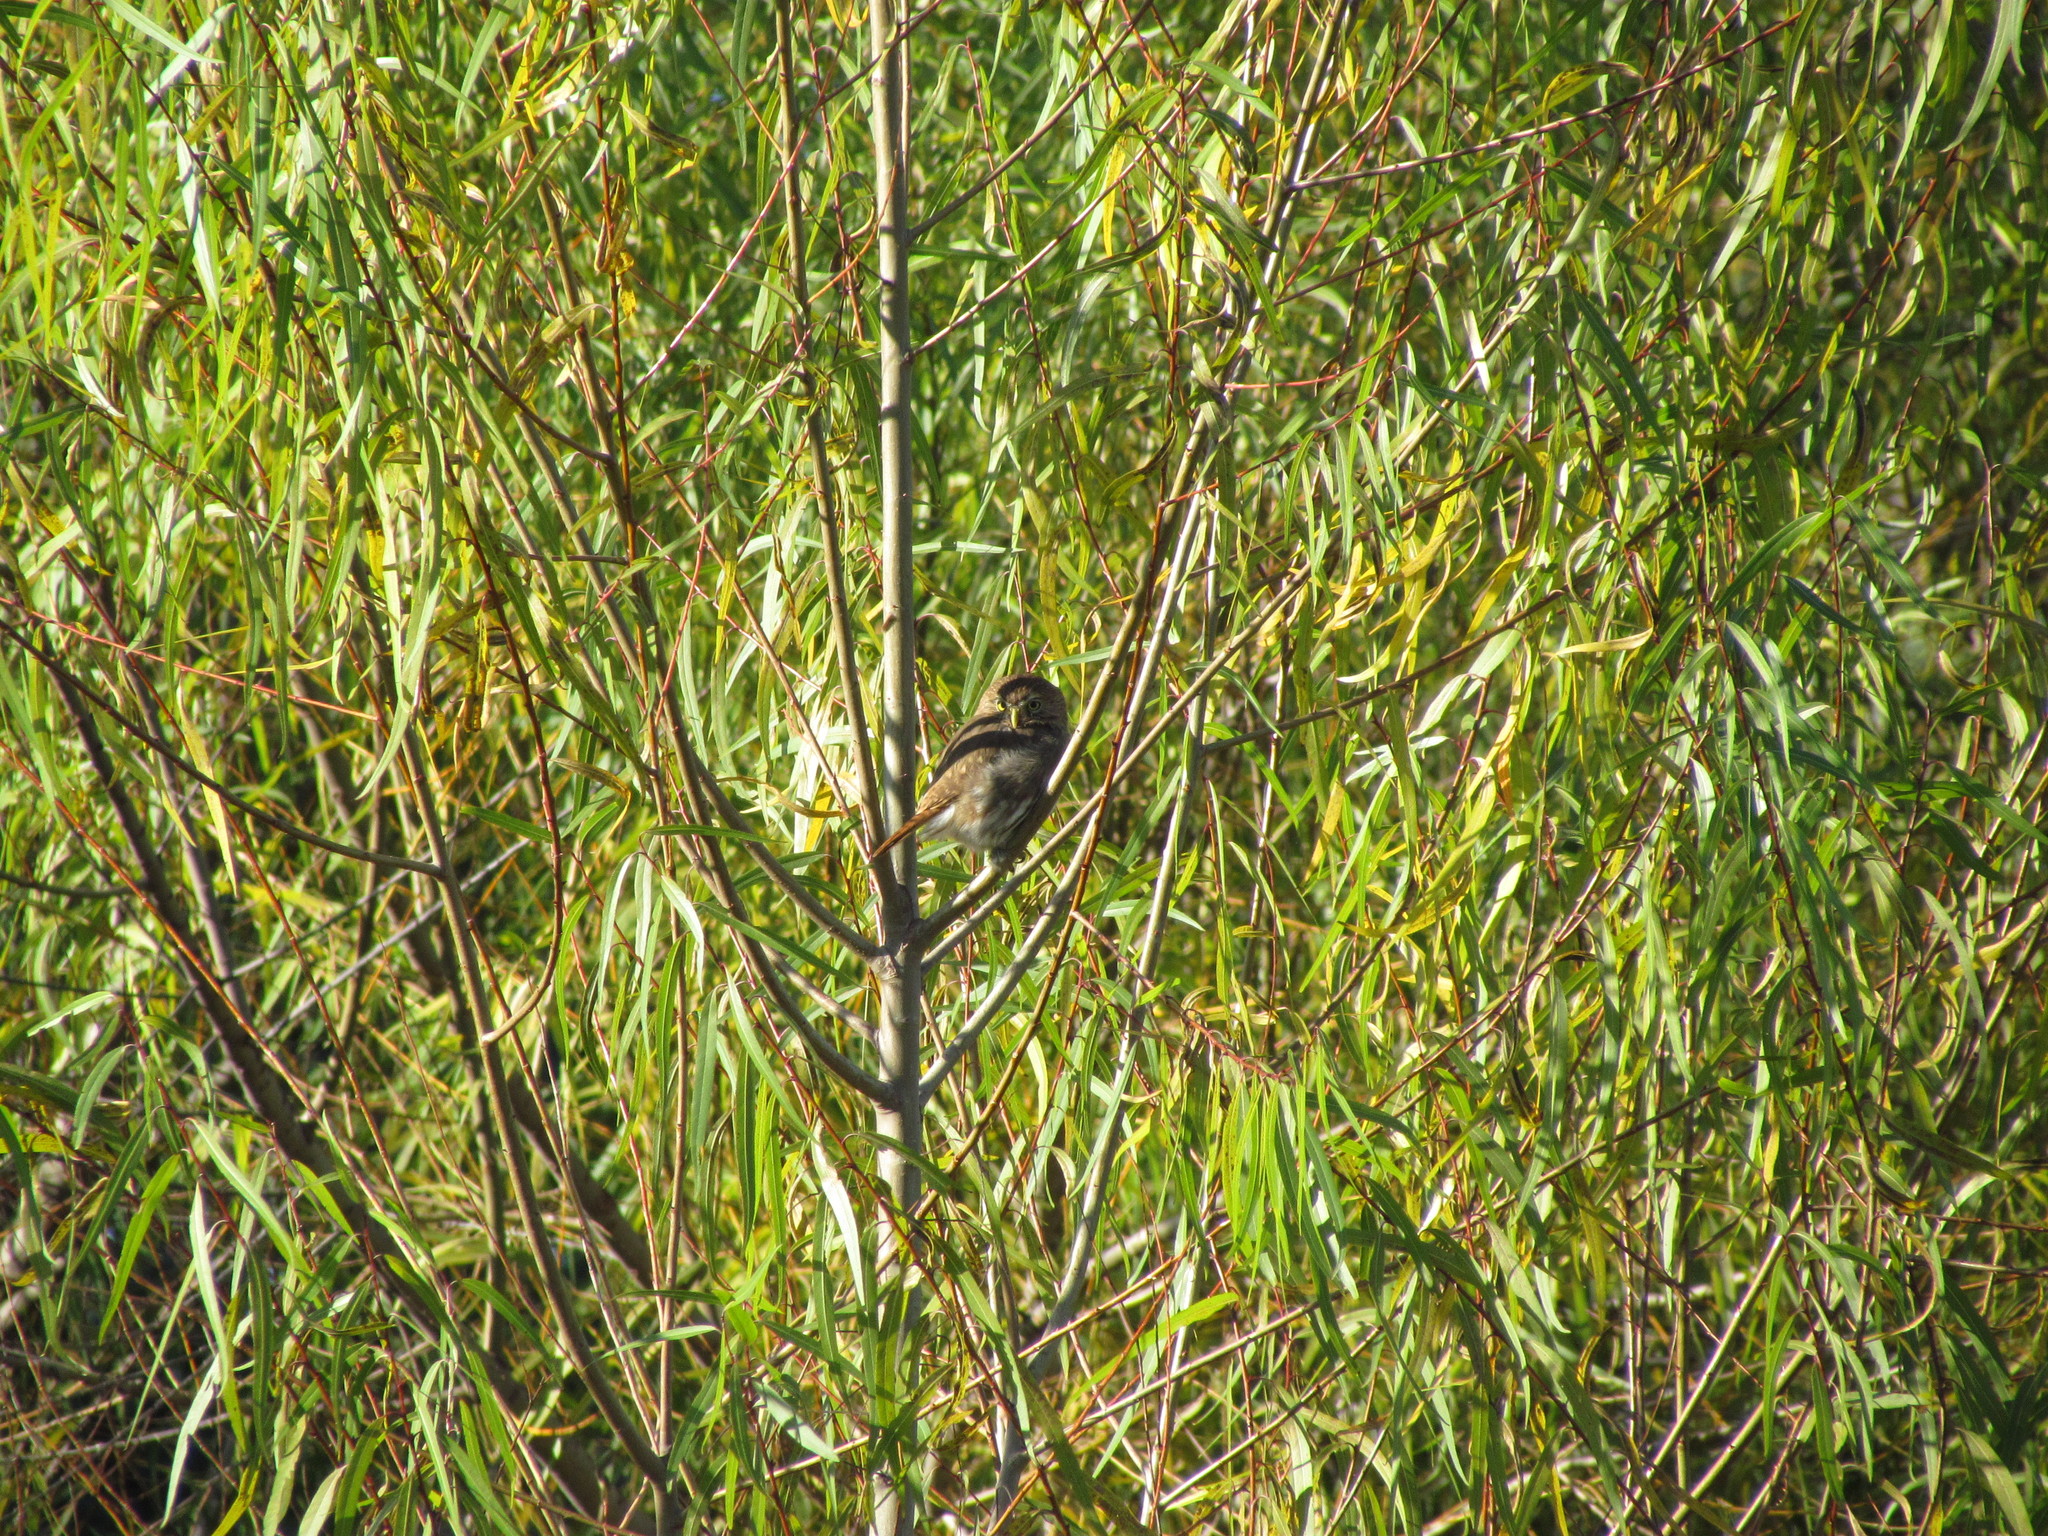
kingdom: Animalia
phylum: Chordata
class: Aves
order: Strigiformes
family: Strigidae
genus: Glaucidium
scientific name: Glaucidium brasilianum
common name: Ferruginous pygmy-owl
